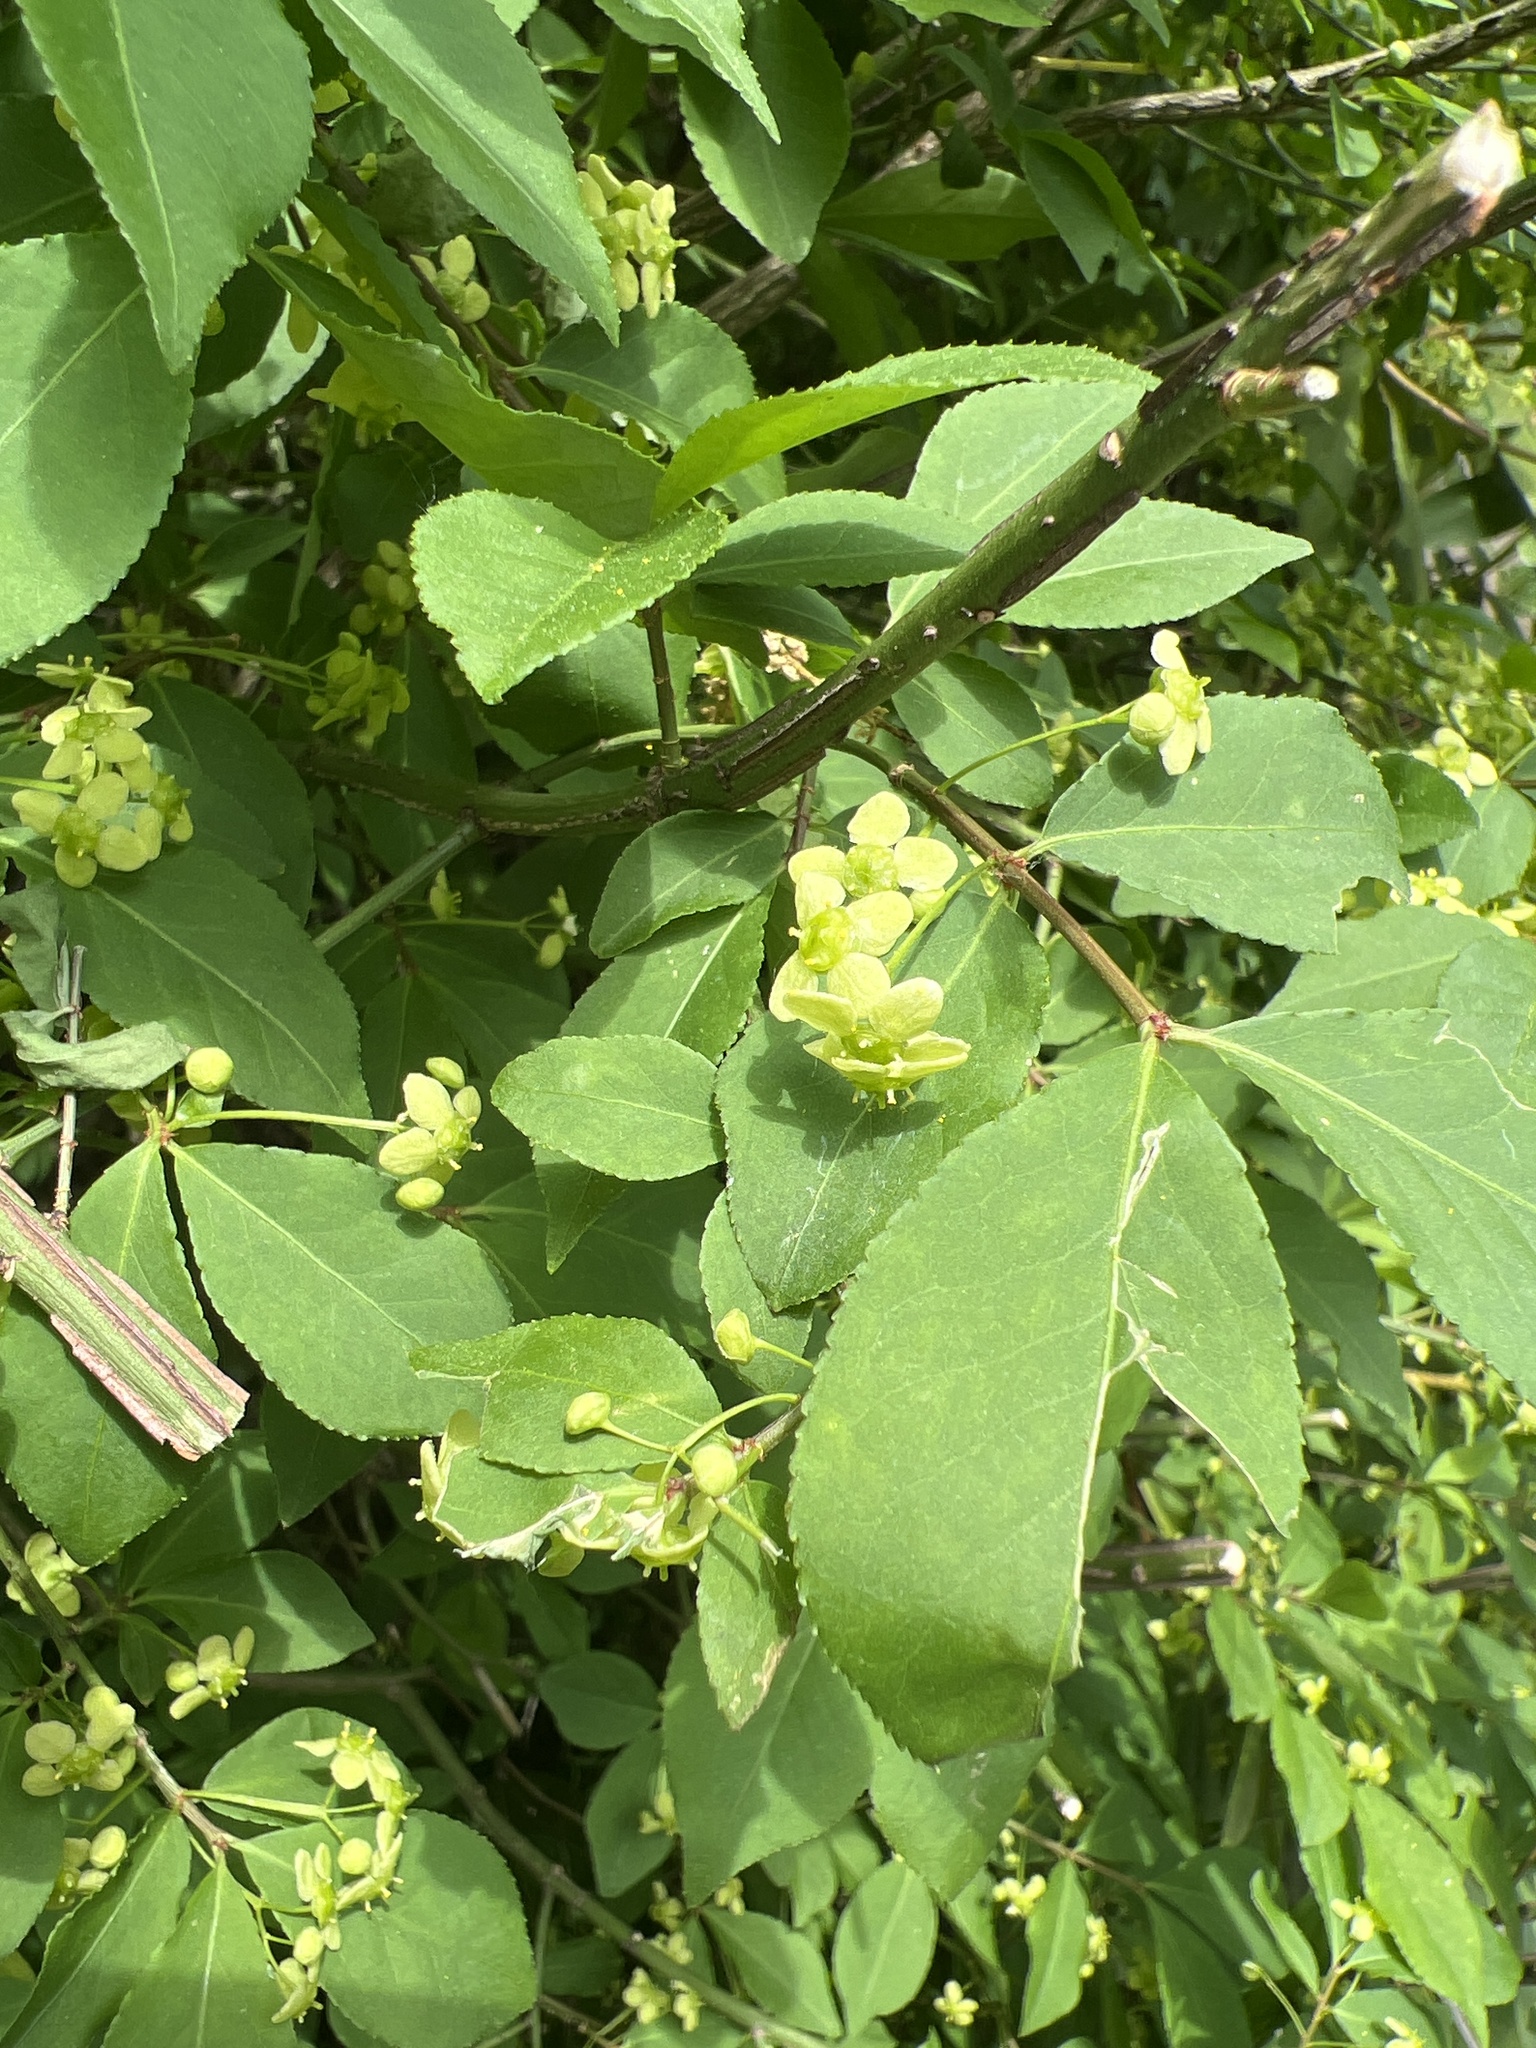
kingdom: Plantae
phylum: Tracheophyta
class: Magnoliopsida
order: Celastrales
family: Celastraceae
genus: Euonymus
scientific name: Euonymus alatus
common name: Winged euonymus
